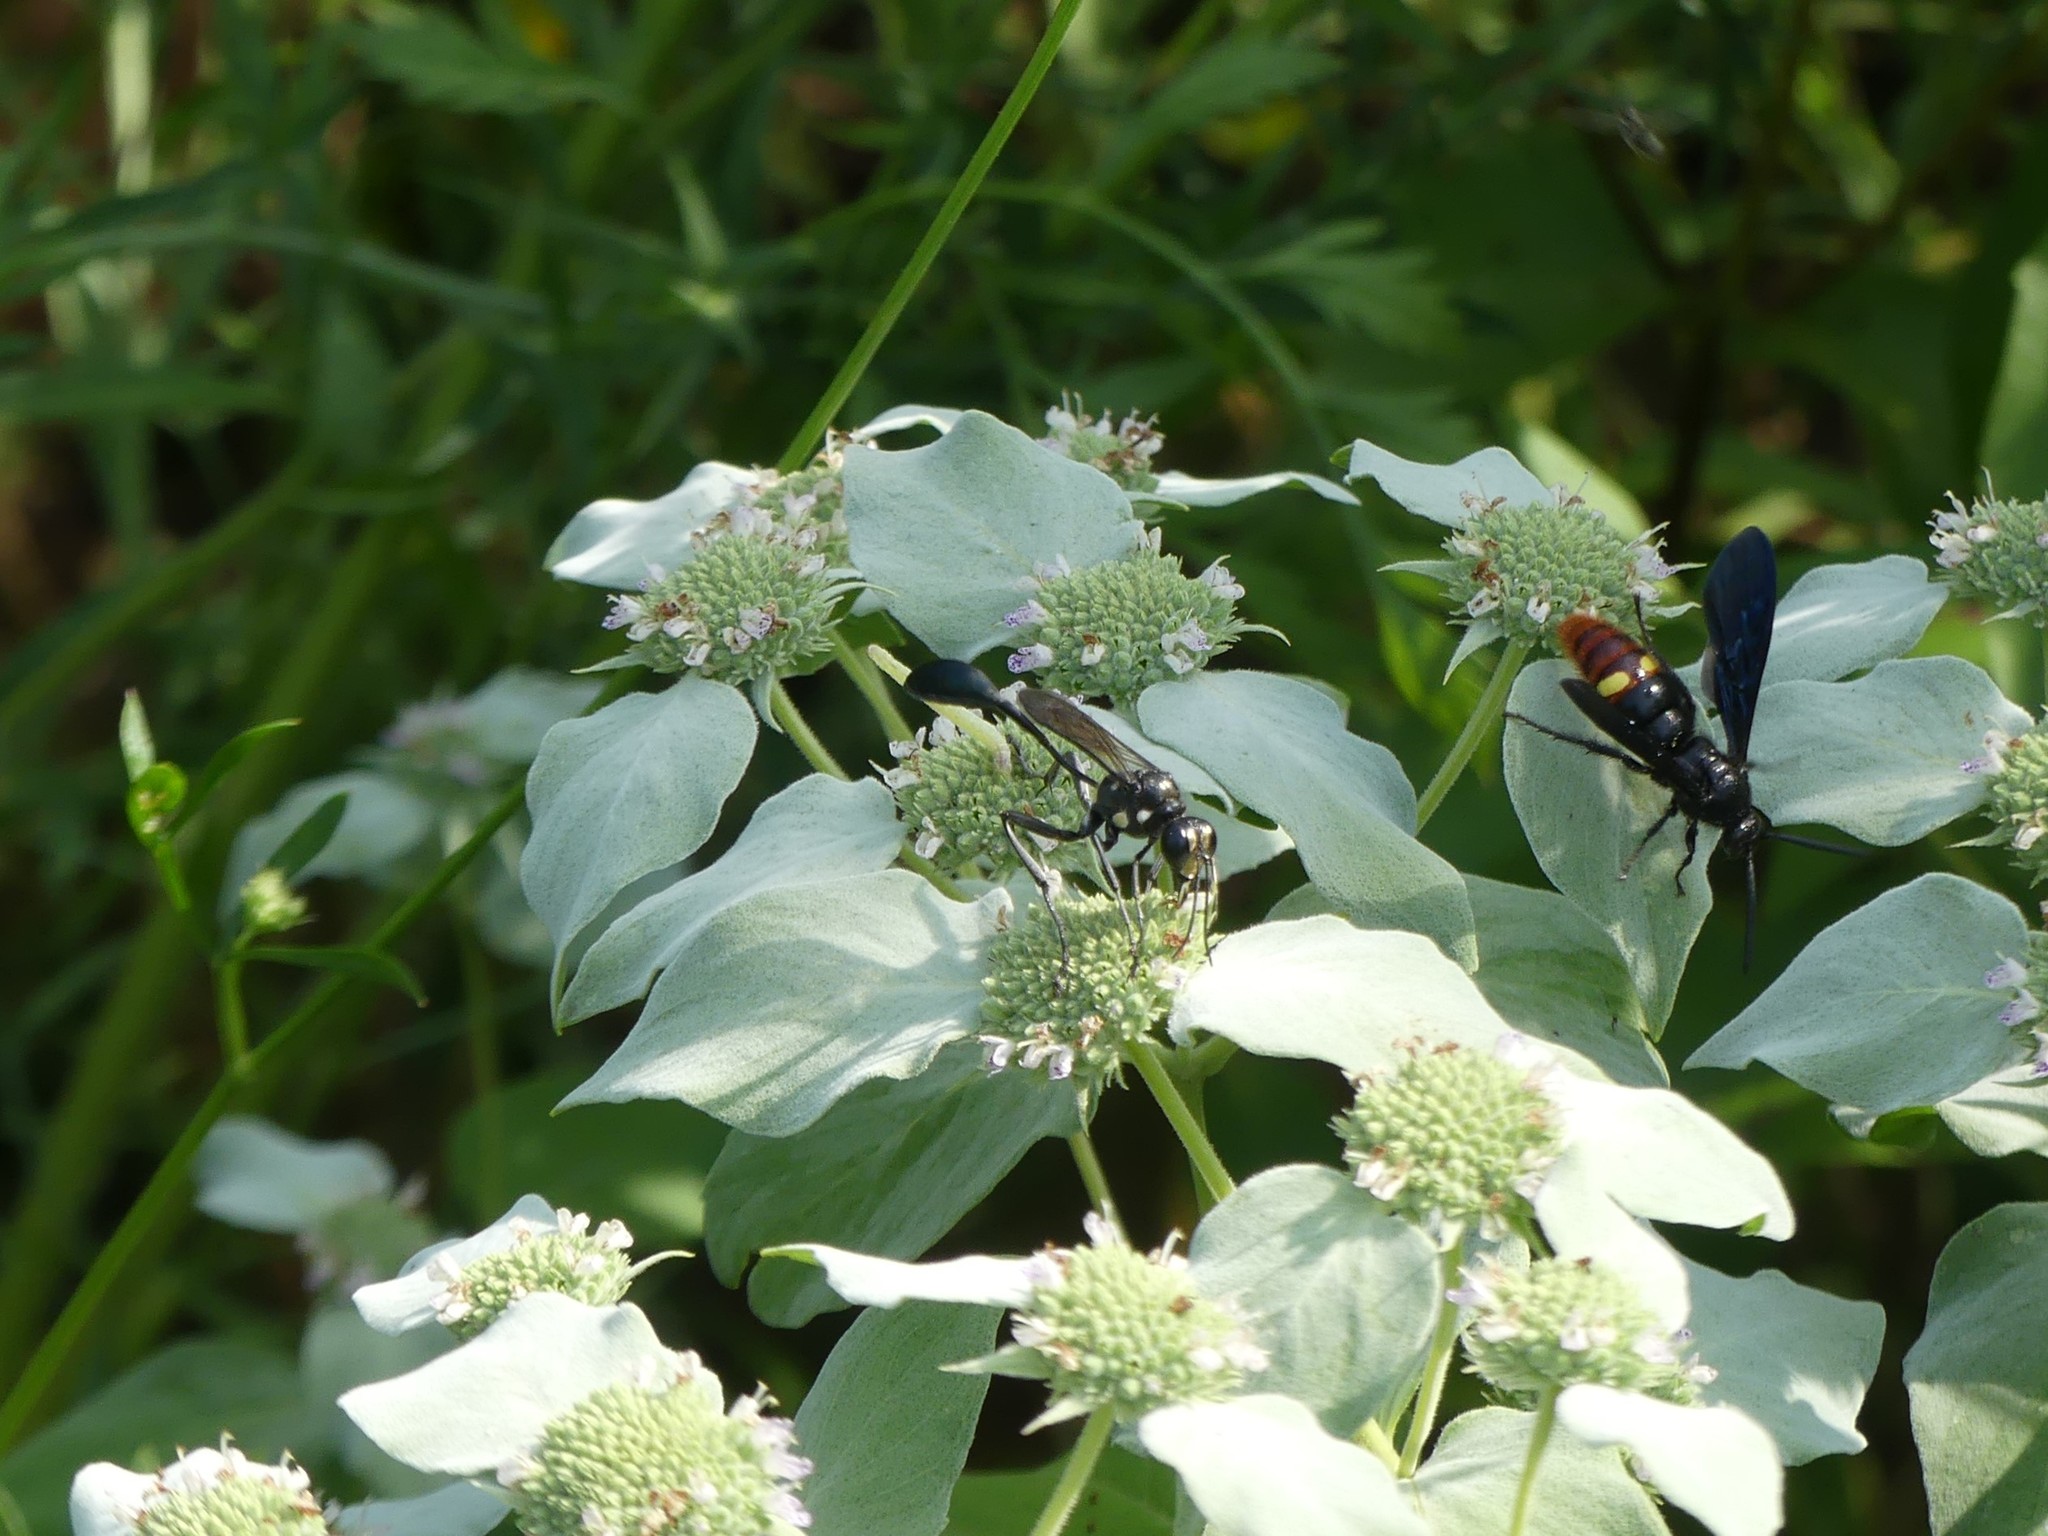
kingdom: Animalia
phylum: Arthropoda
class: Insecta
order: Hymenoptera
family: Sphecidae
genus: Eremnophila
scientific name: Eremnophila aureonotata
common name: Gold-marked thread-waisted wasp
